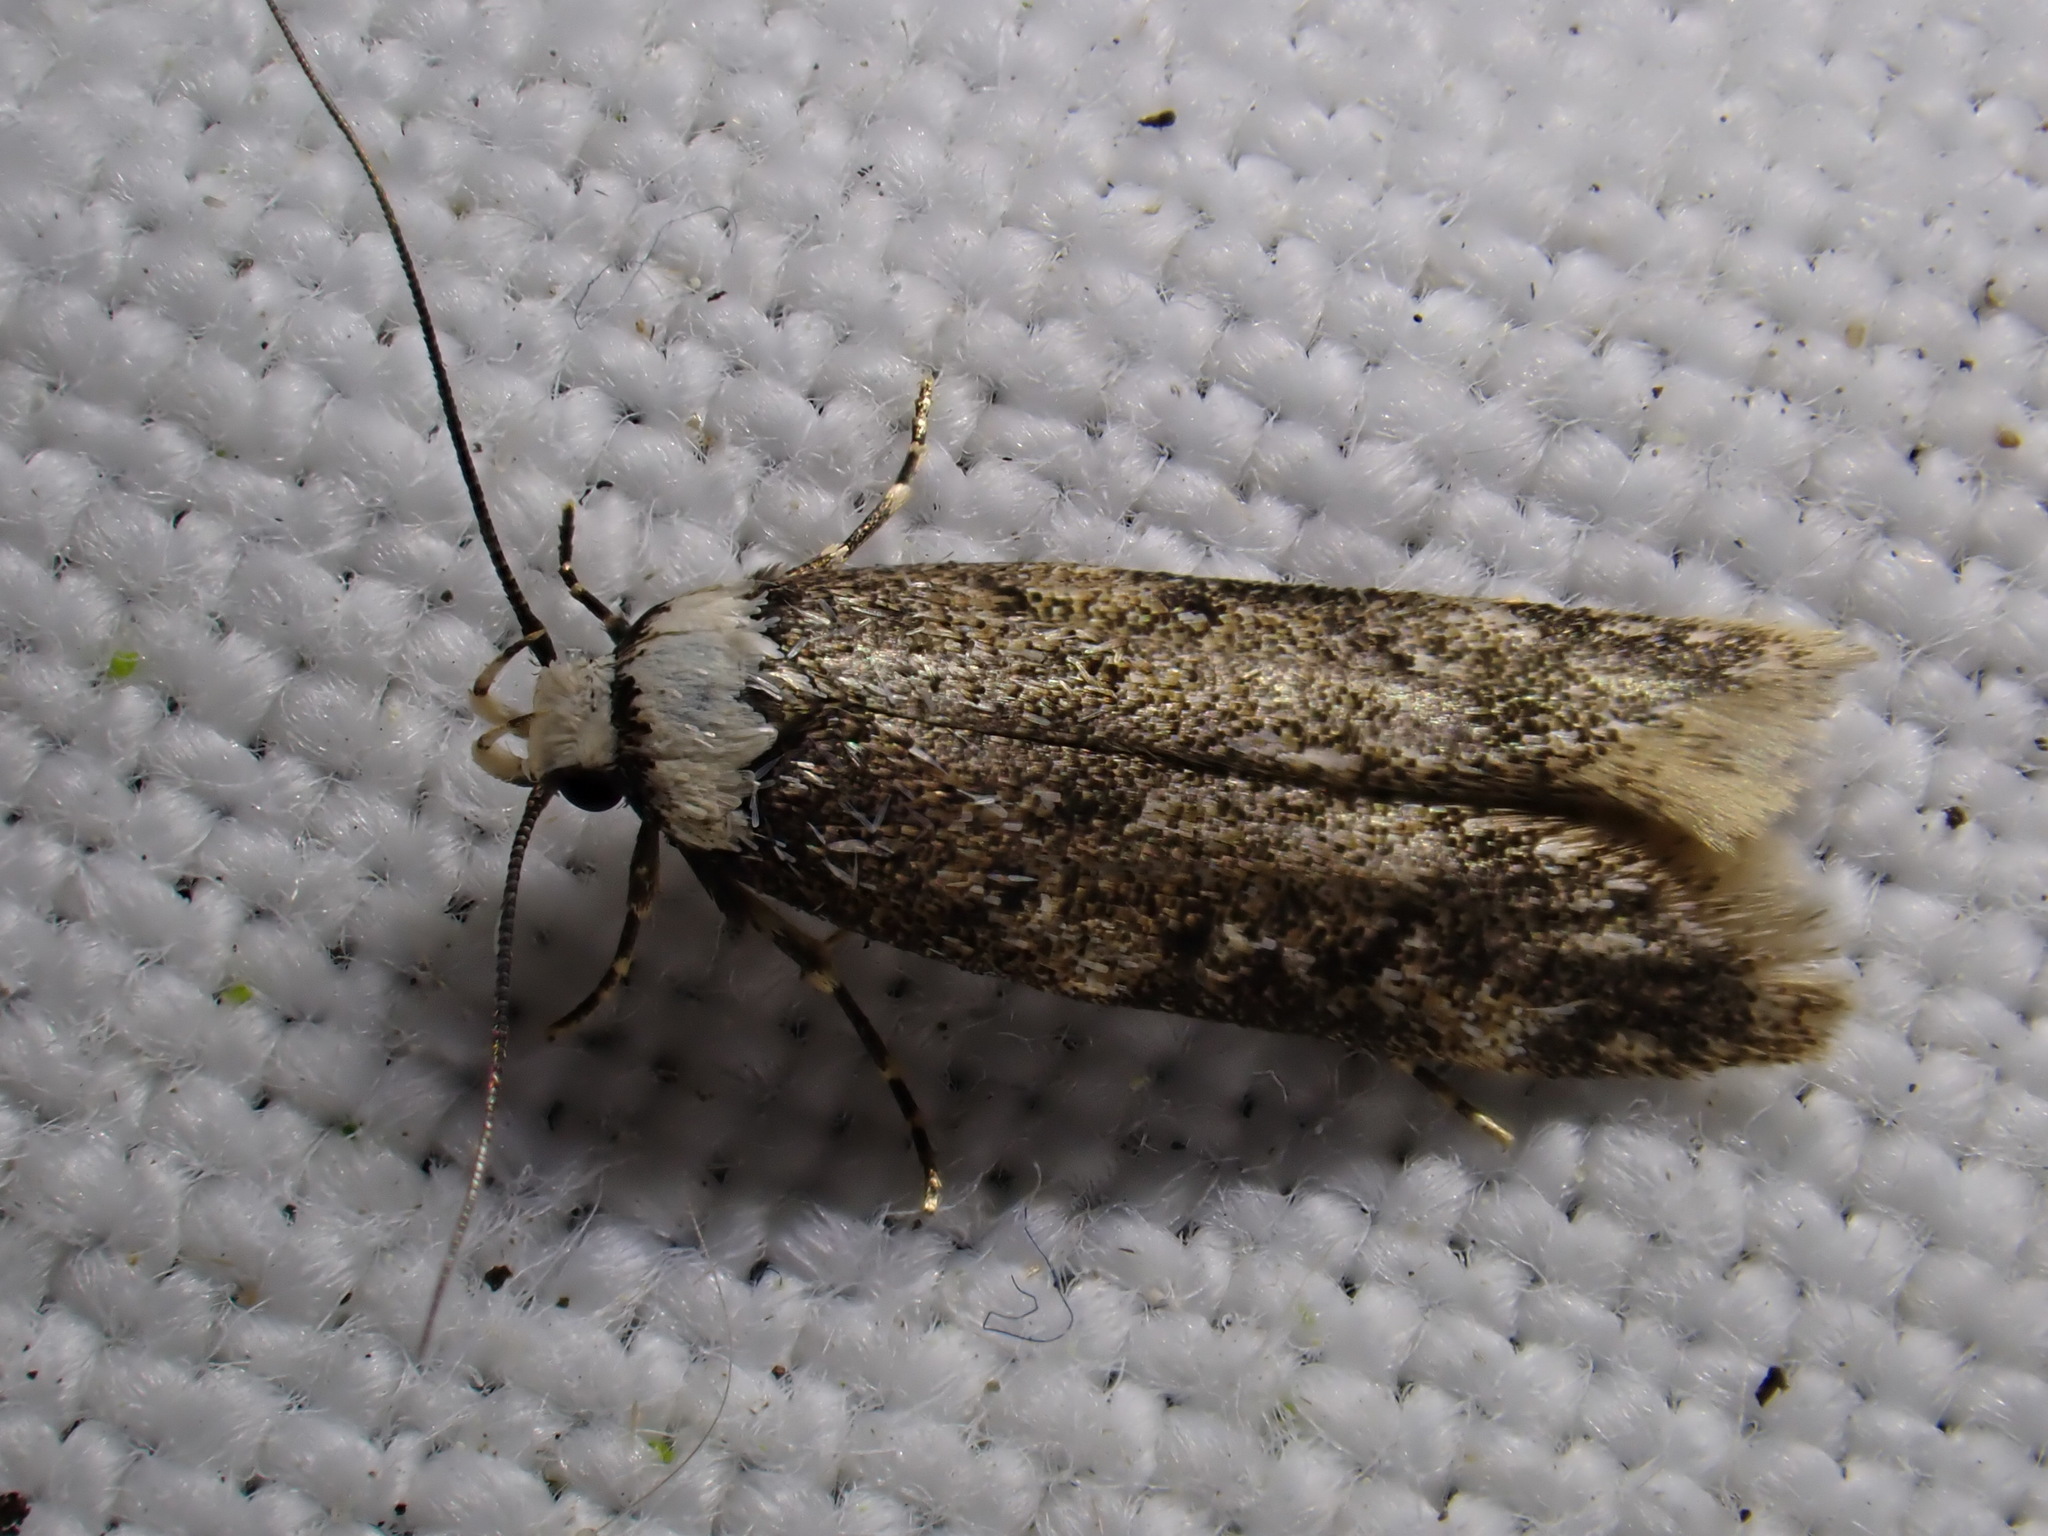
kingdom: Animalia
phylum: Arthropoda
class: Insecta
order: Lepidoptera
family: Oecophoridae
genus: Endrosis
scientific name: Endrosis sarcitrella
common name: White-shouldered house moth
